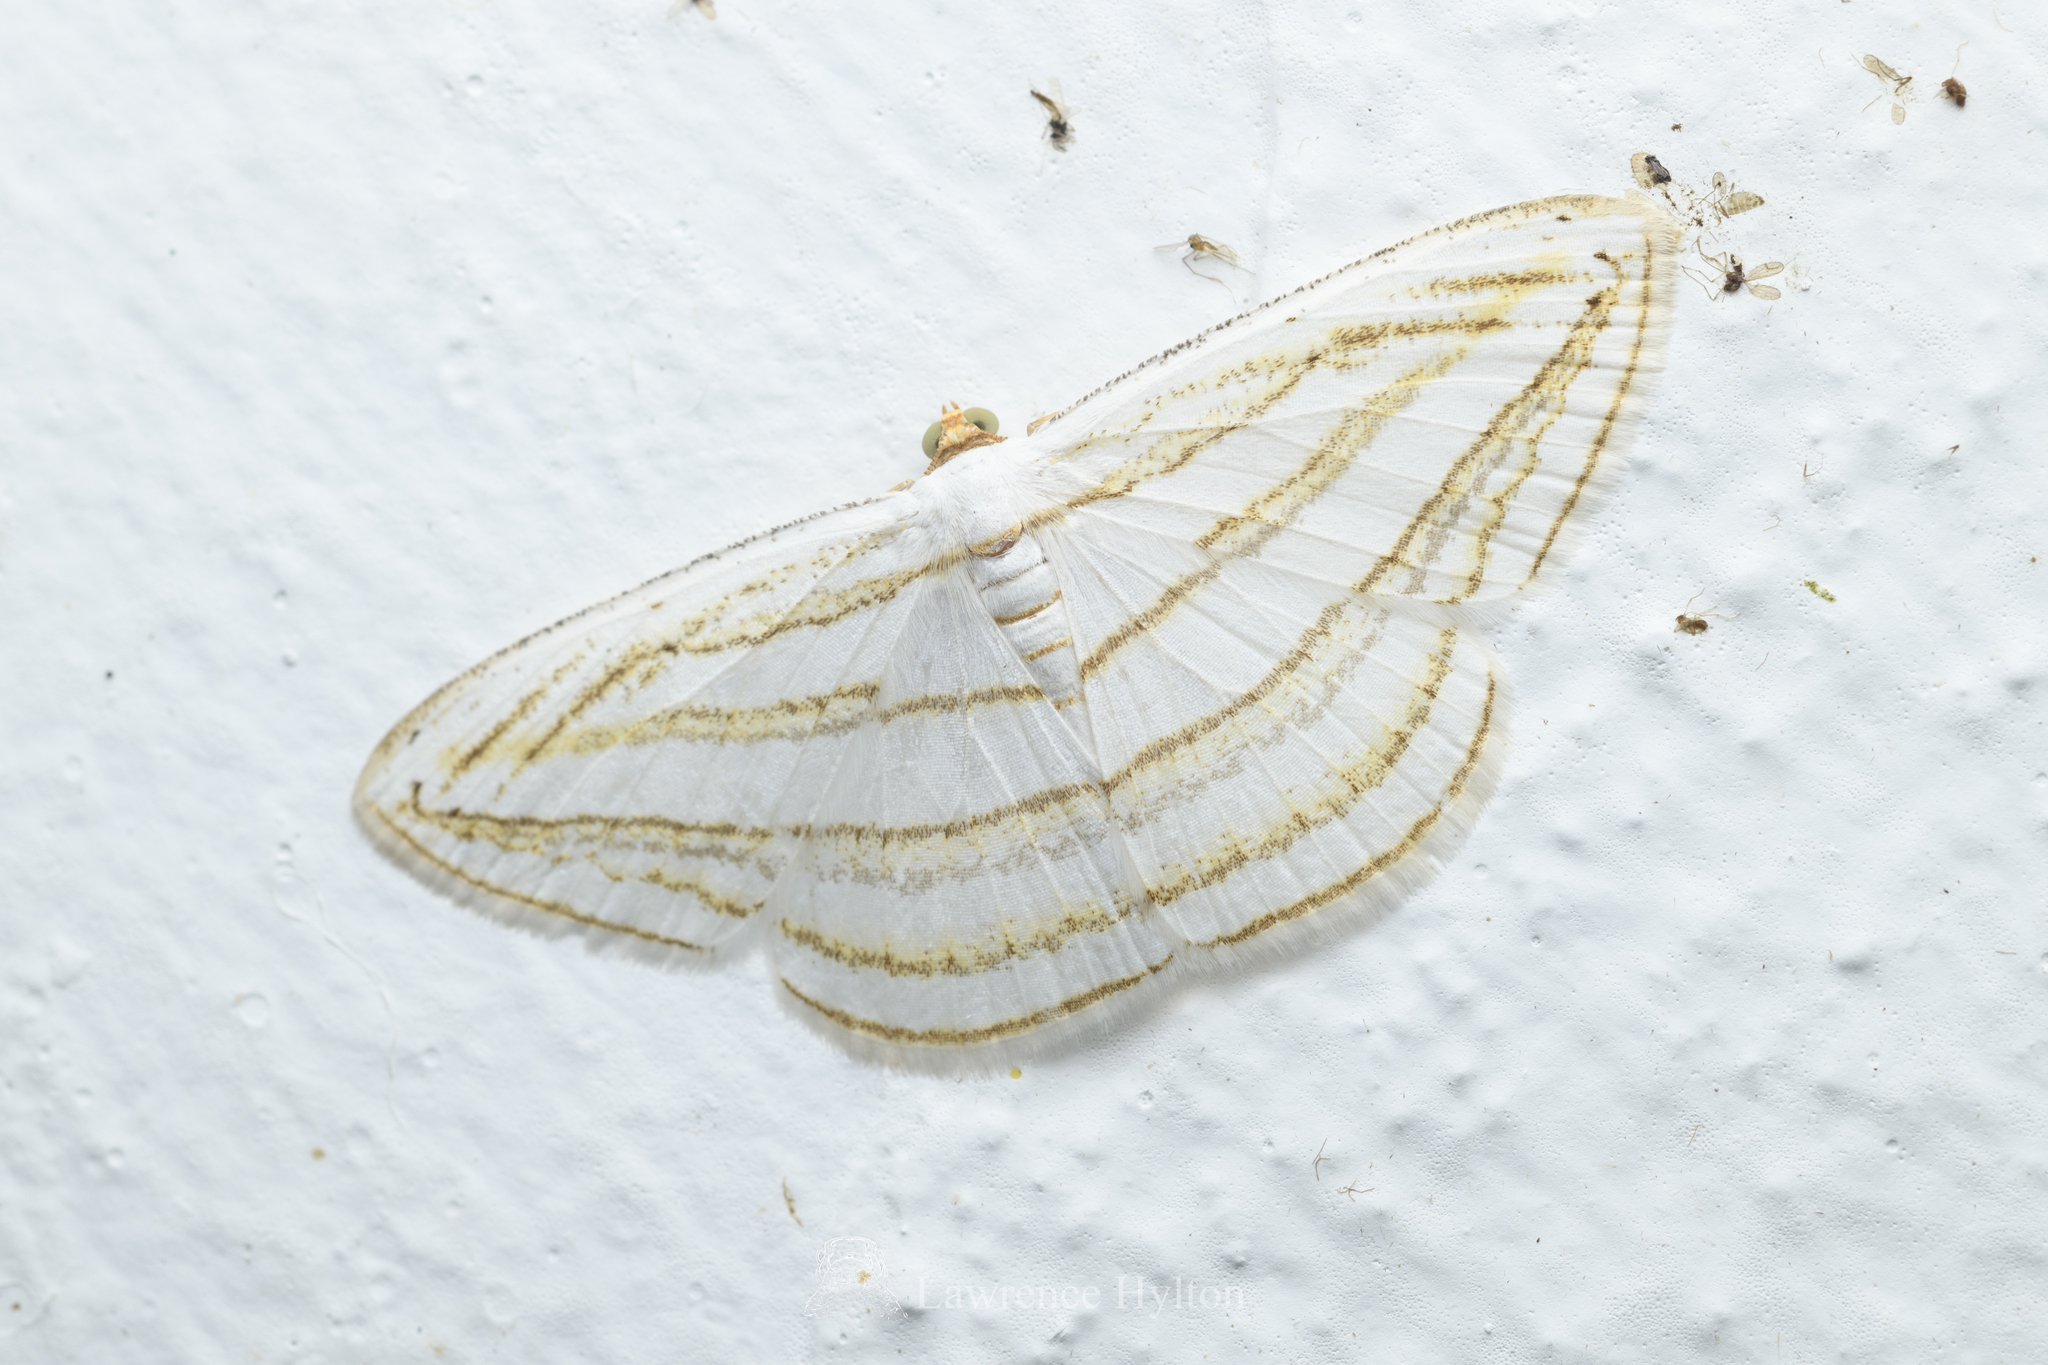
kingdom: Animalia
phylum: Arthropoda
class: Insecta
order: Lepidoptera
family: Geometridae
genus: Orthocabera
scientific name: Orthocabera sericea
